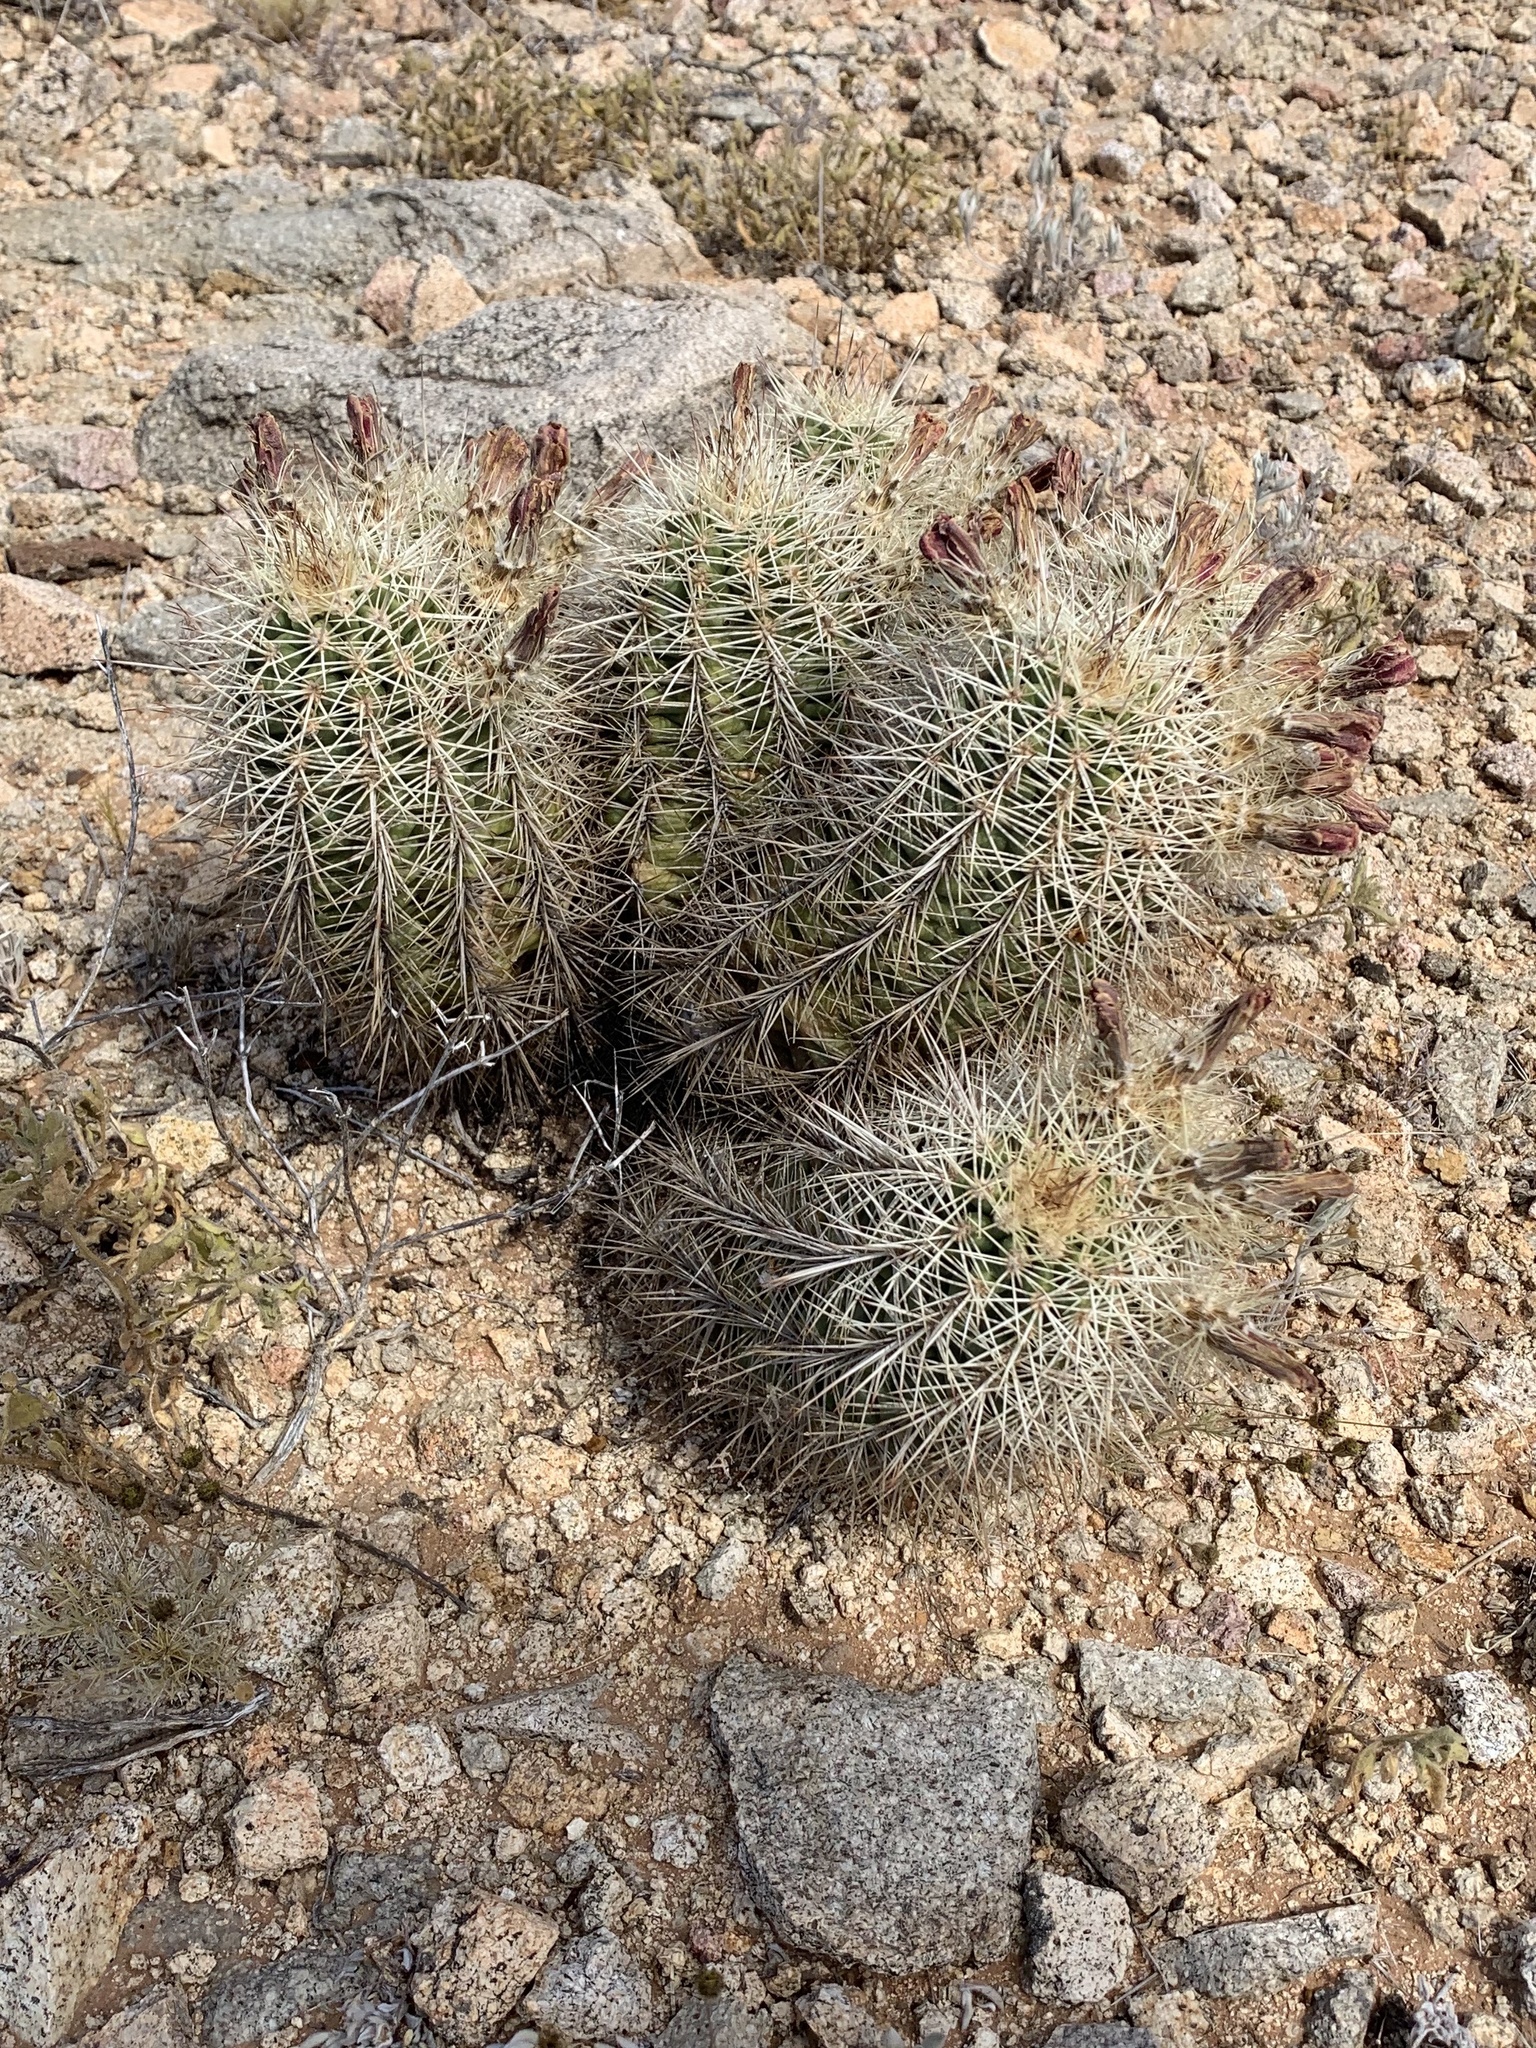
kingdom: Plantae
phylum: Tracheophyta
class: Magnoliopsida
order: Caryophyllales
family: Cactaceae
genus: Echinocereus
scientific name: Echinocereus roetteri
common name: Lloyd's hedgehog cactus
